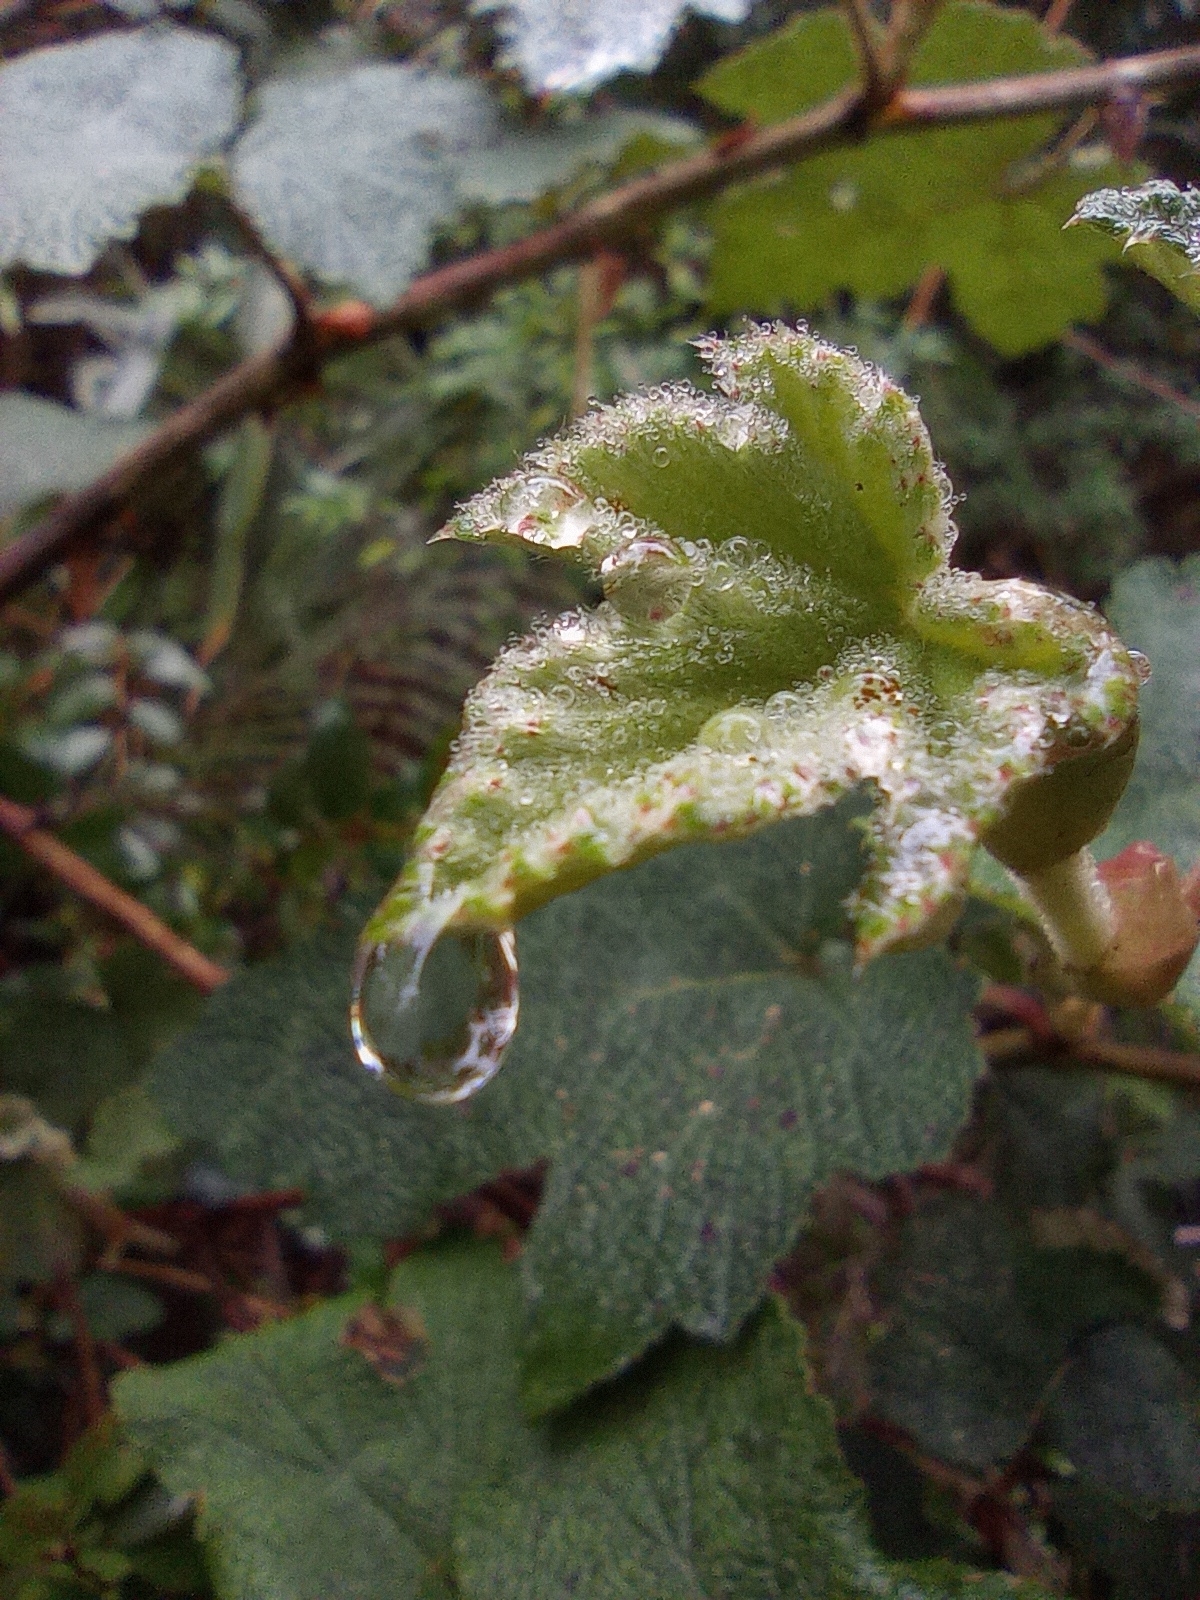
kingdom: Plantae
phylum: Tracheophyta
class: Magnoliopsida
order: Rosales
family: Rosaceae
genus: Rubus
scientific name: Rubus formosensis
